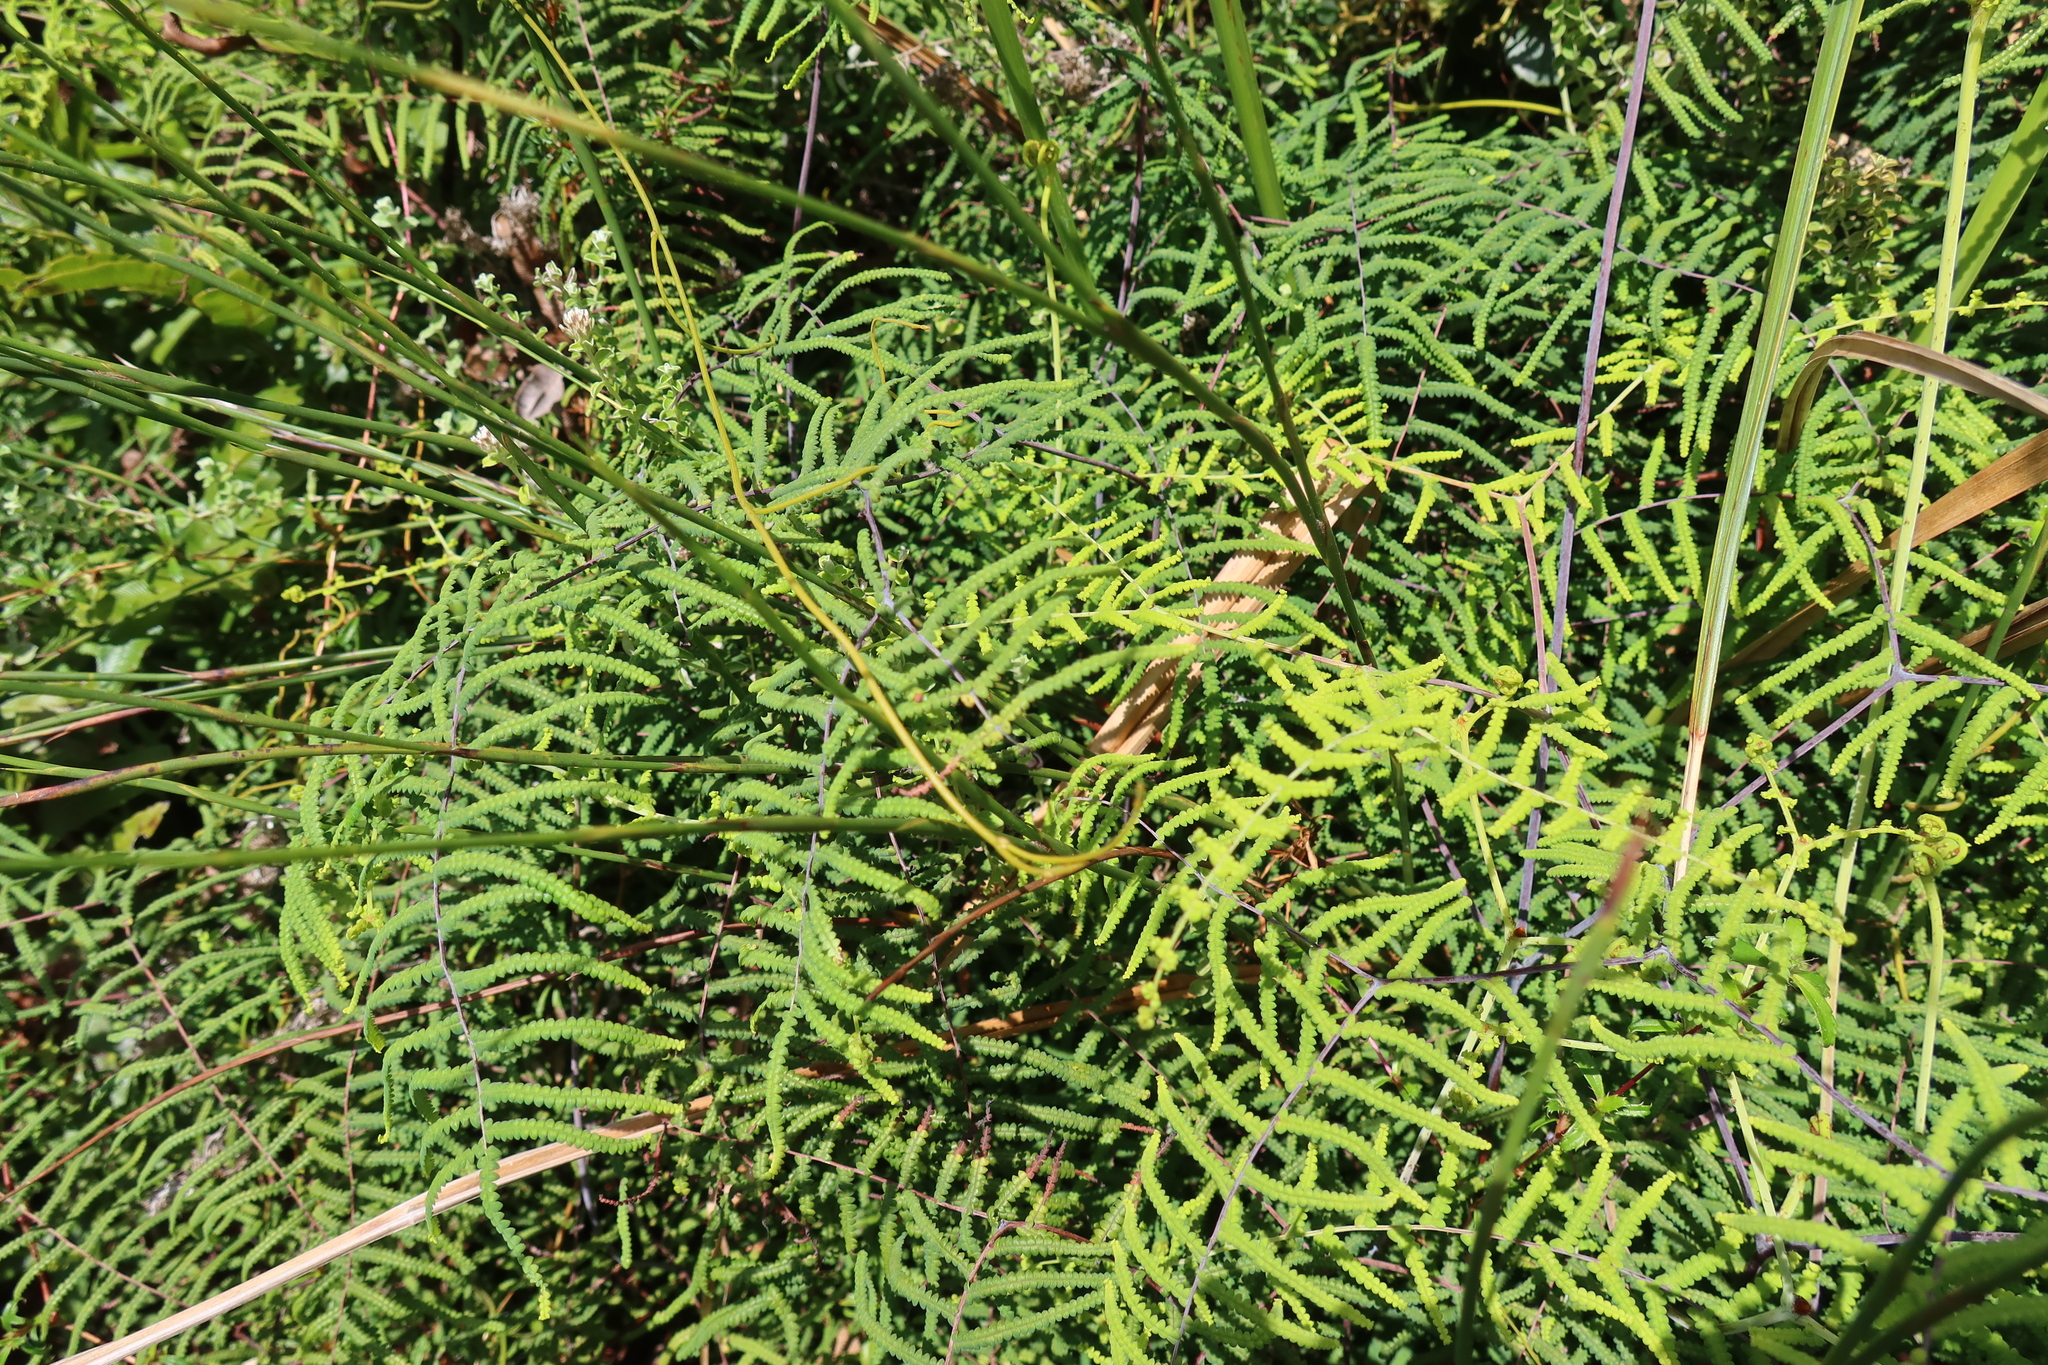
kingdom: Plantae
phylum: Tracheophyta
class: Polypodiopsida
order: Gleicheniales
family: Gleicheniaceae
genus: Gleichenia
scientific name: Gleichenia polypodioides
